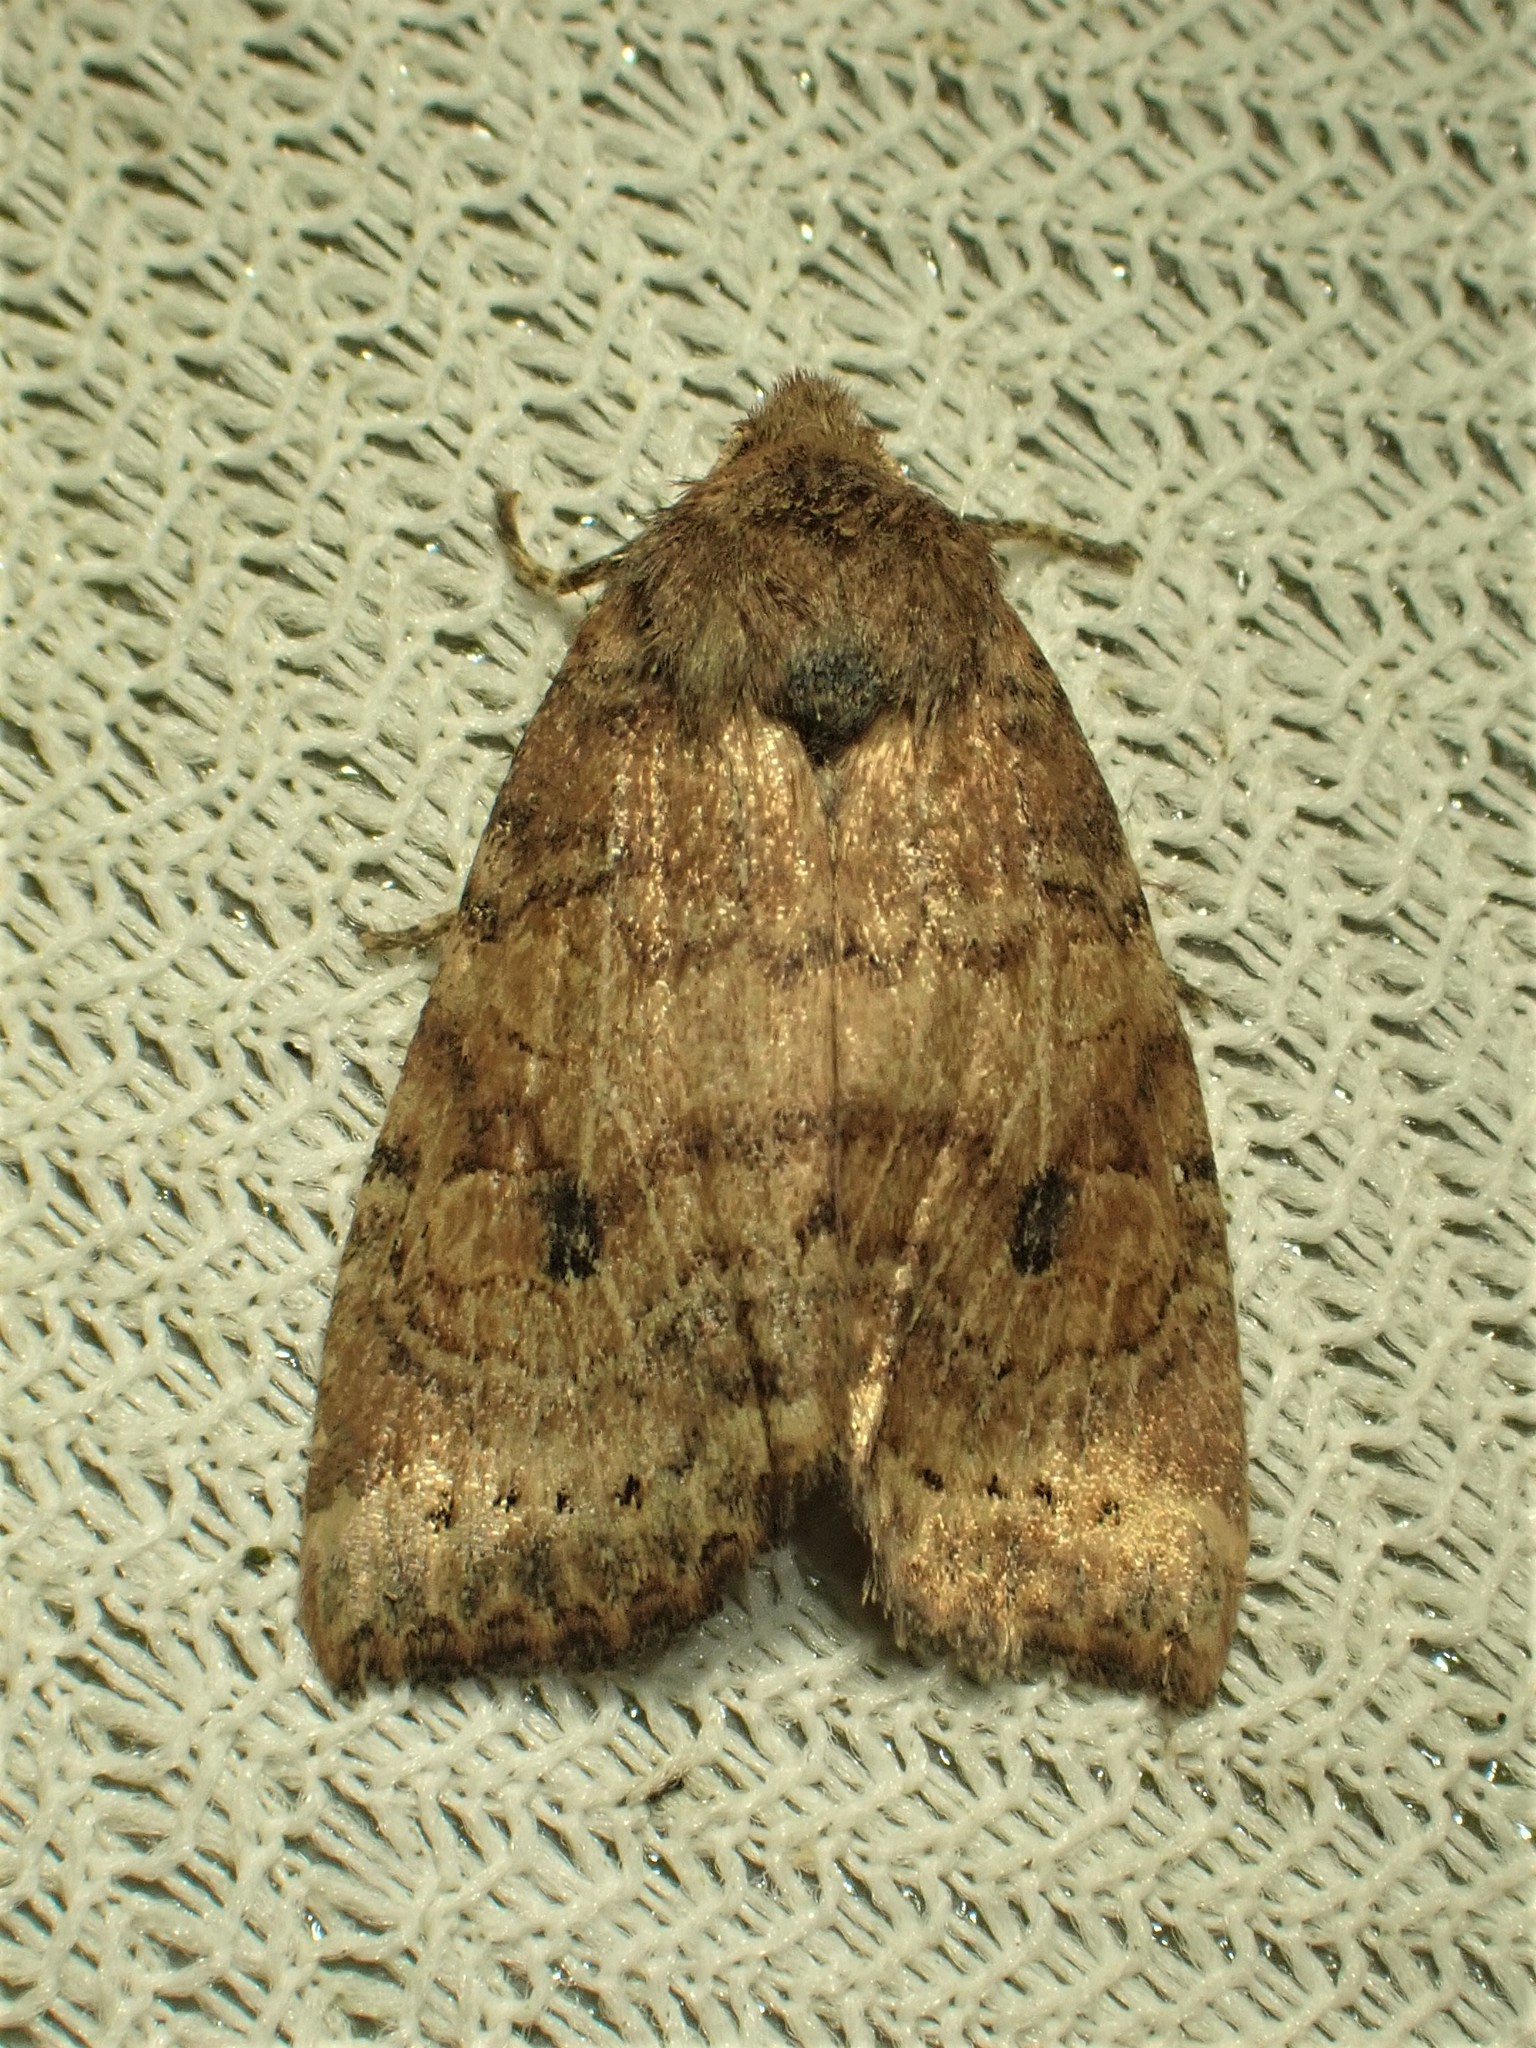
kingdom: Animalia
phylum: Arthropoda
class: Insecta
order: Lepidoptera
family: Noctuidae
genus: Anathix
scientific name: Anathix puta
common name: Puta sallow
